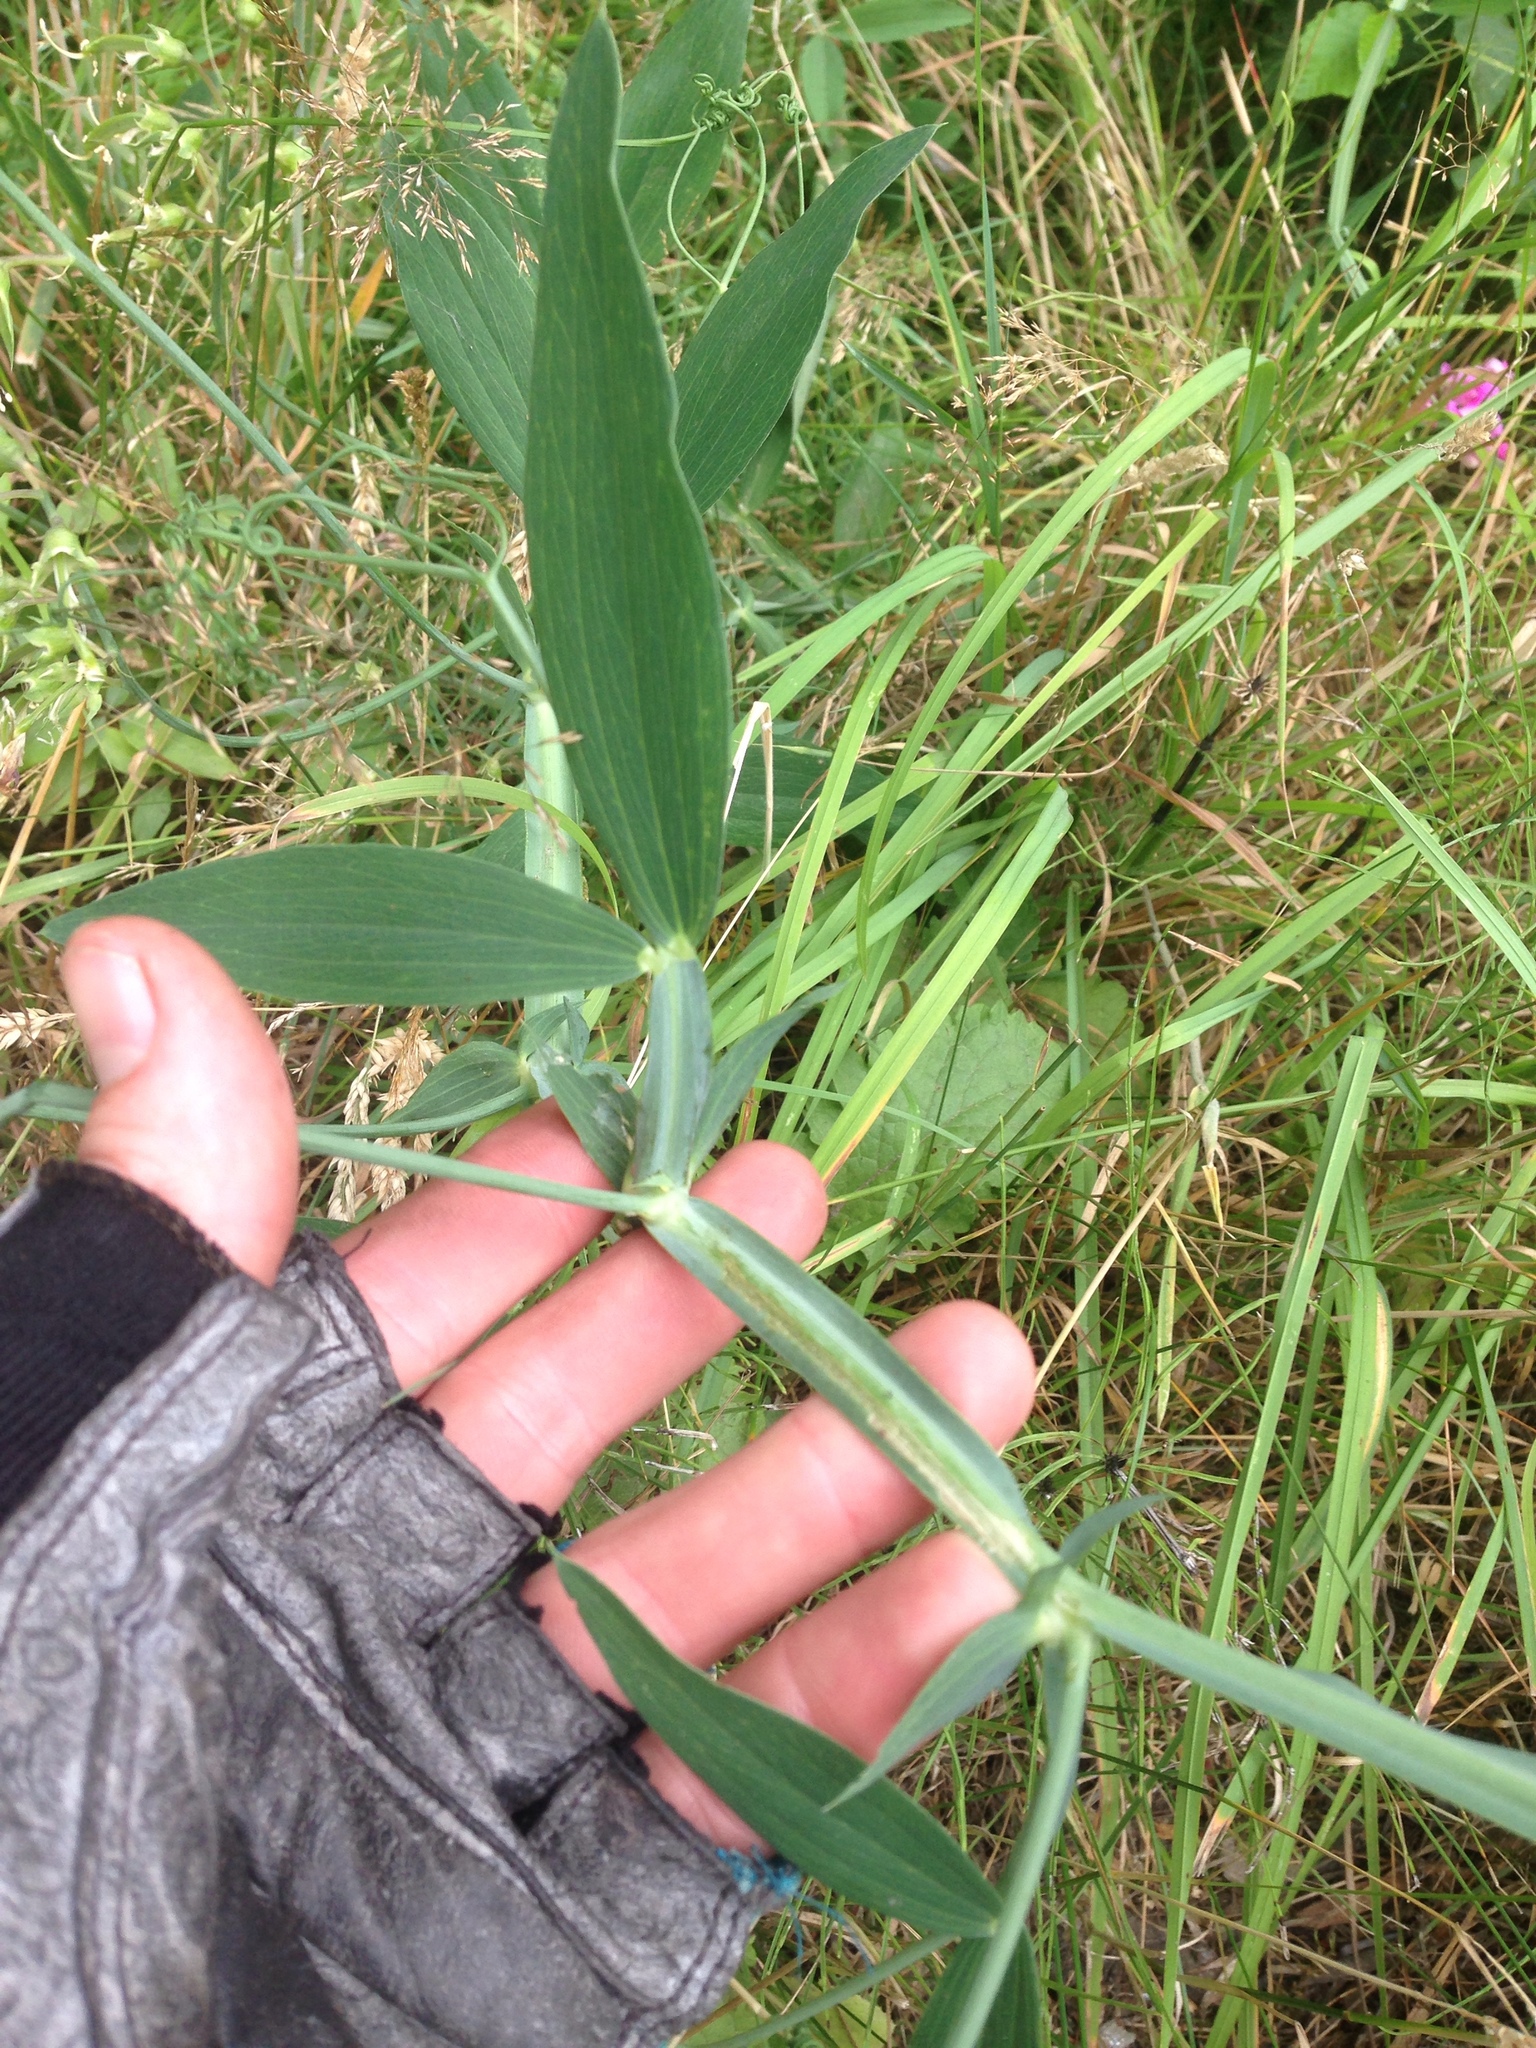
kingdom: Plantae
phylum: Tracheophyta
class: Magnoliopsida
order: Fabales
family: Fabaceae
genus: Lathyrus
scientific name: Lathyrus latifolius
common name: Perennial pea
